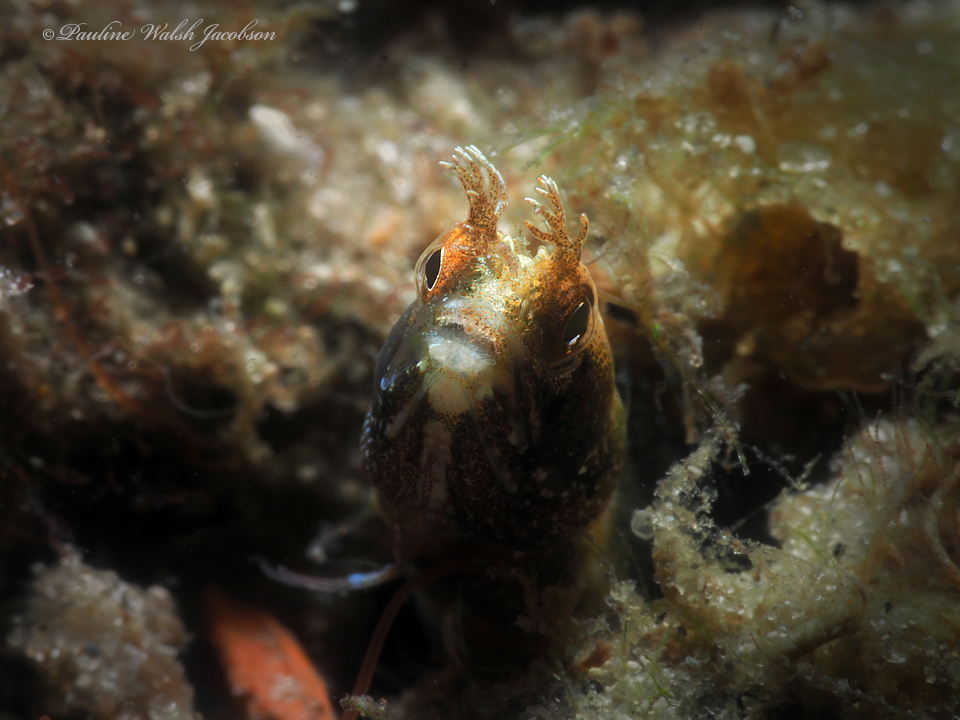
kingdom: Animalia
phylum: Chordata
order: Perciformes
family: Chaenopsidae
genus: Acanthemblemaria
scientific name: Acanthemblemaria aspera
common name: Roughhead blenny
